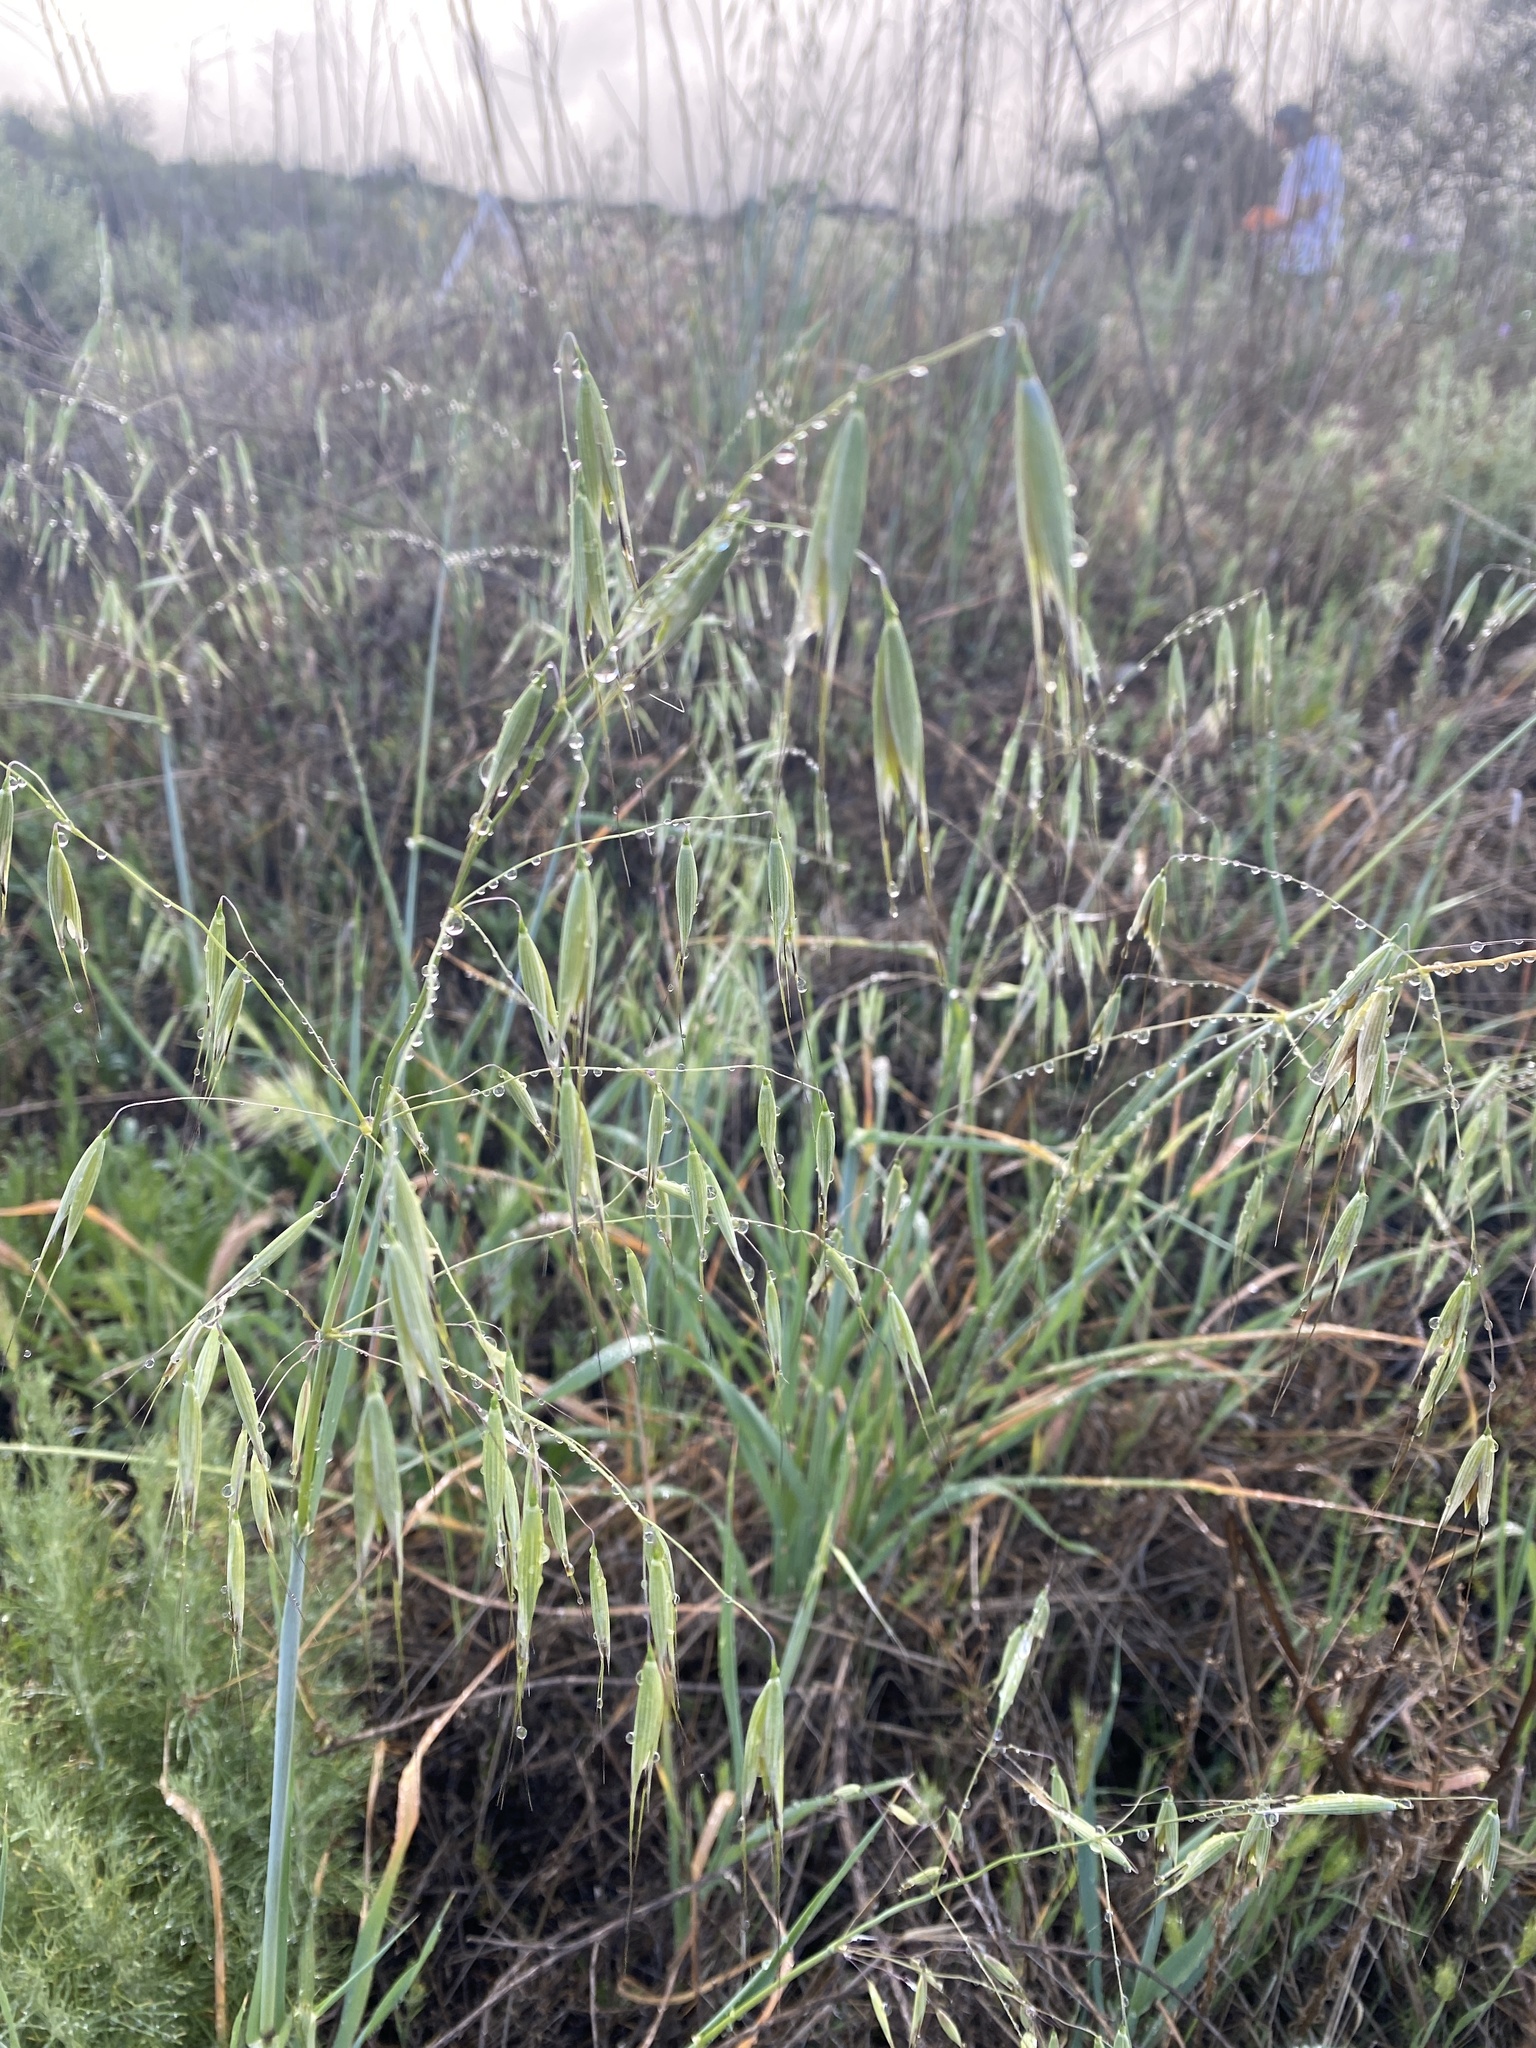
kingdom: Plantae
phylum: Tracheophyta
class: Liliopsida
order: Poales
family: Poaceae
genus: Avena
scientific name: Avena fatua
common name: Wild oat
